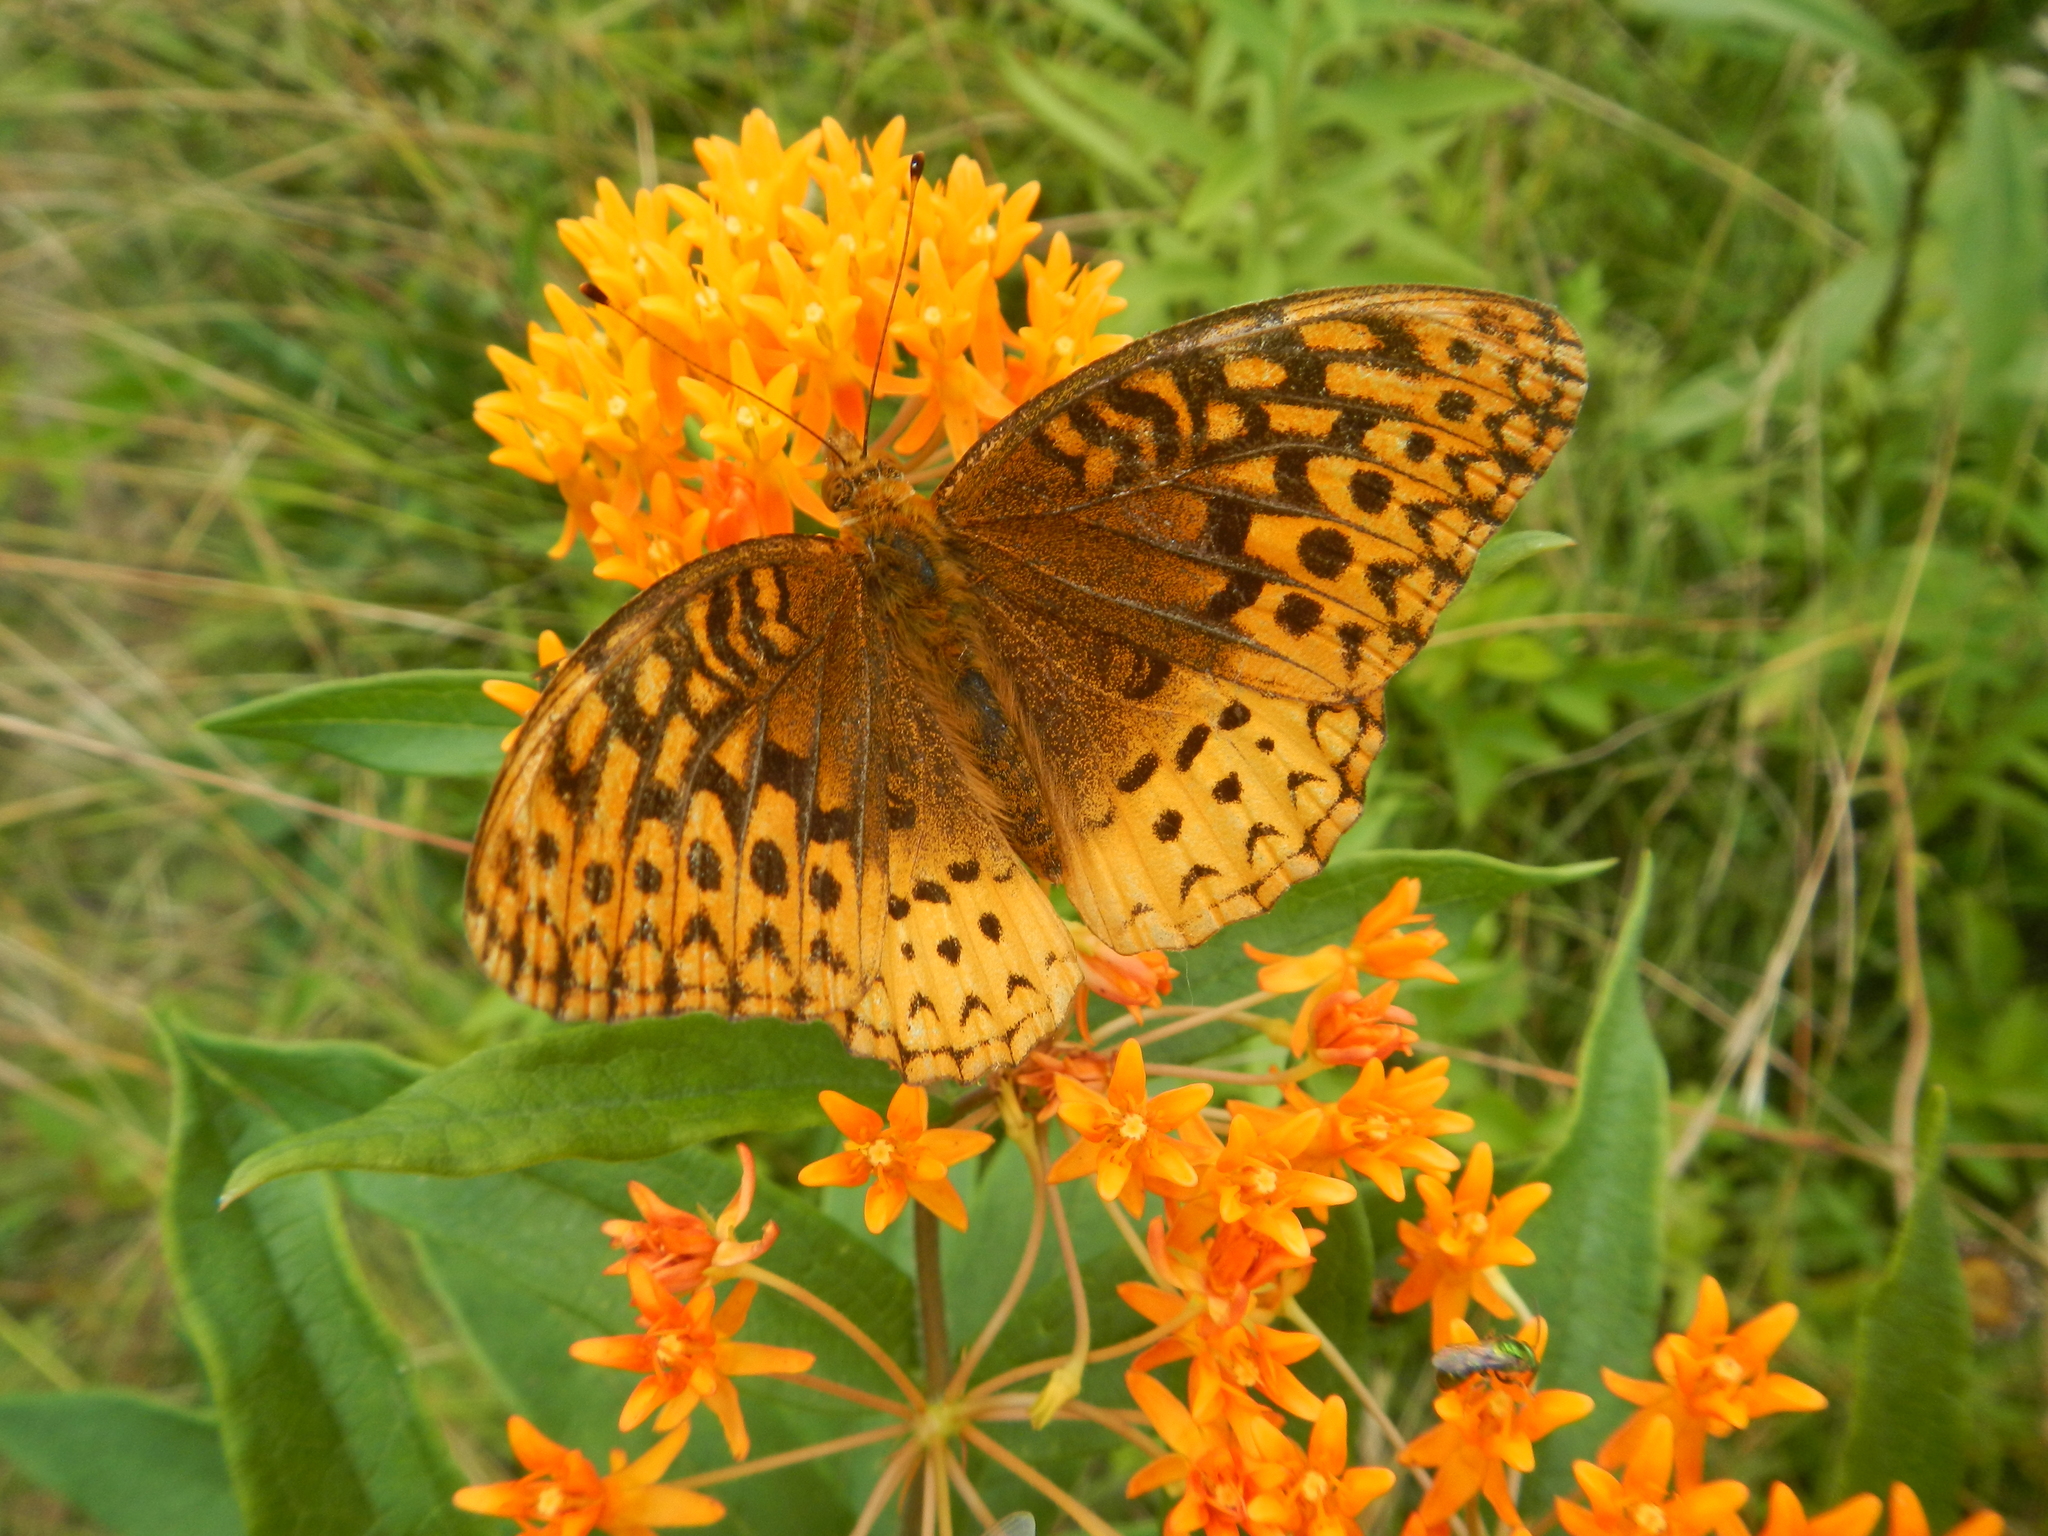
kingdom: Animalia
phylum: Arthropoda
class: Insecta
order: Lepidoptera
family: Nymphalidae
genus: Speyeria
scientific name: Speyeria cybele
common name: Great spangled fritillary
